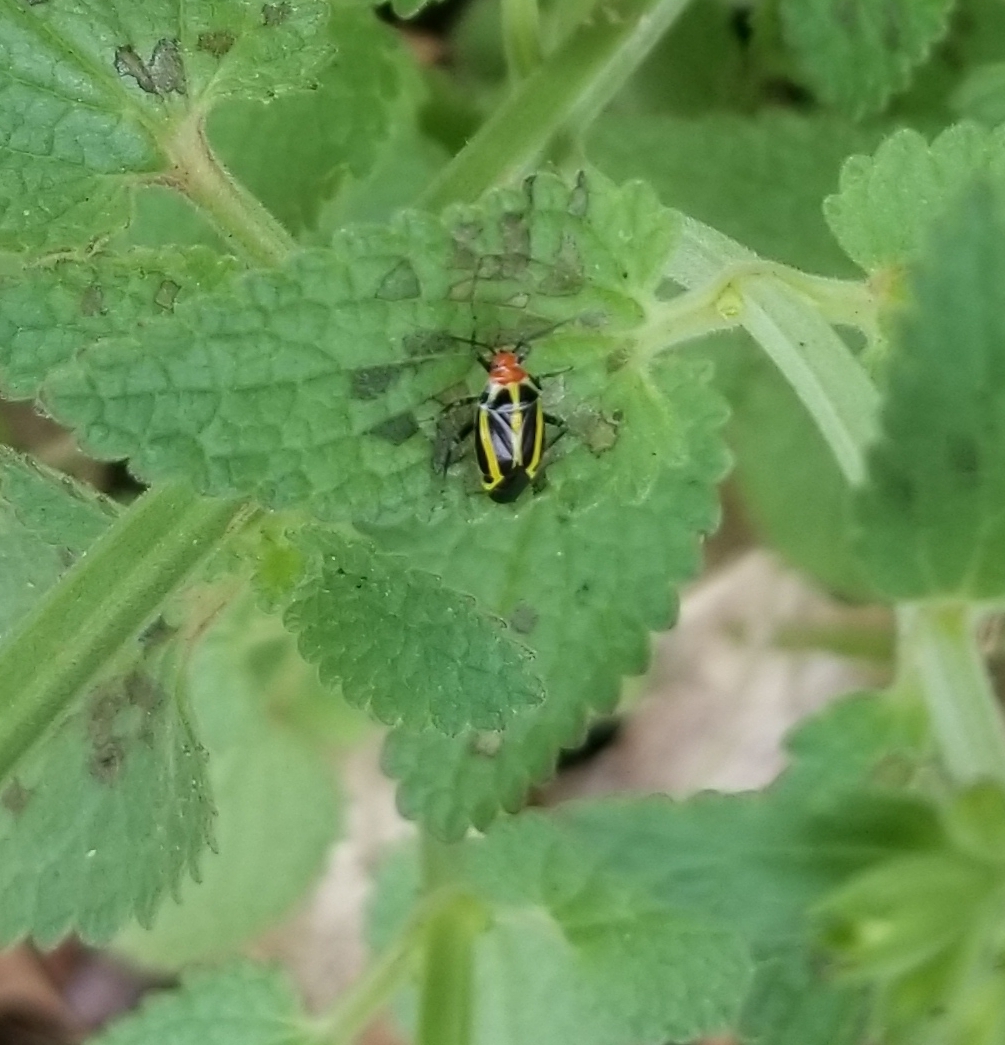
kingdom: Animalia
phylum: Arthropoda
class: Insecta
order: Hemiptera
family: Miridae
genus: Poecilocapsus
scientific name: Poecilocapsus lineatus
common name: Four-lined plant bug
